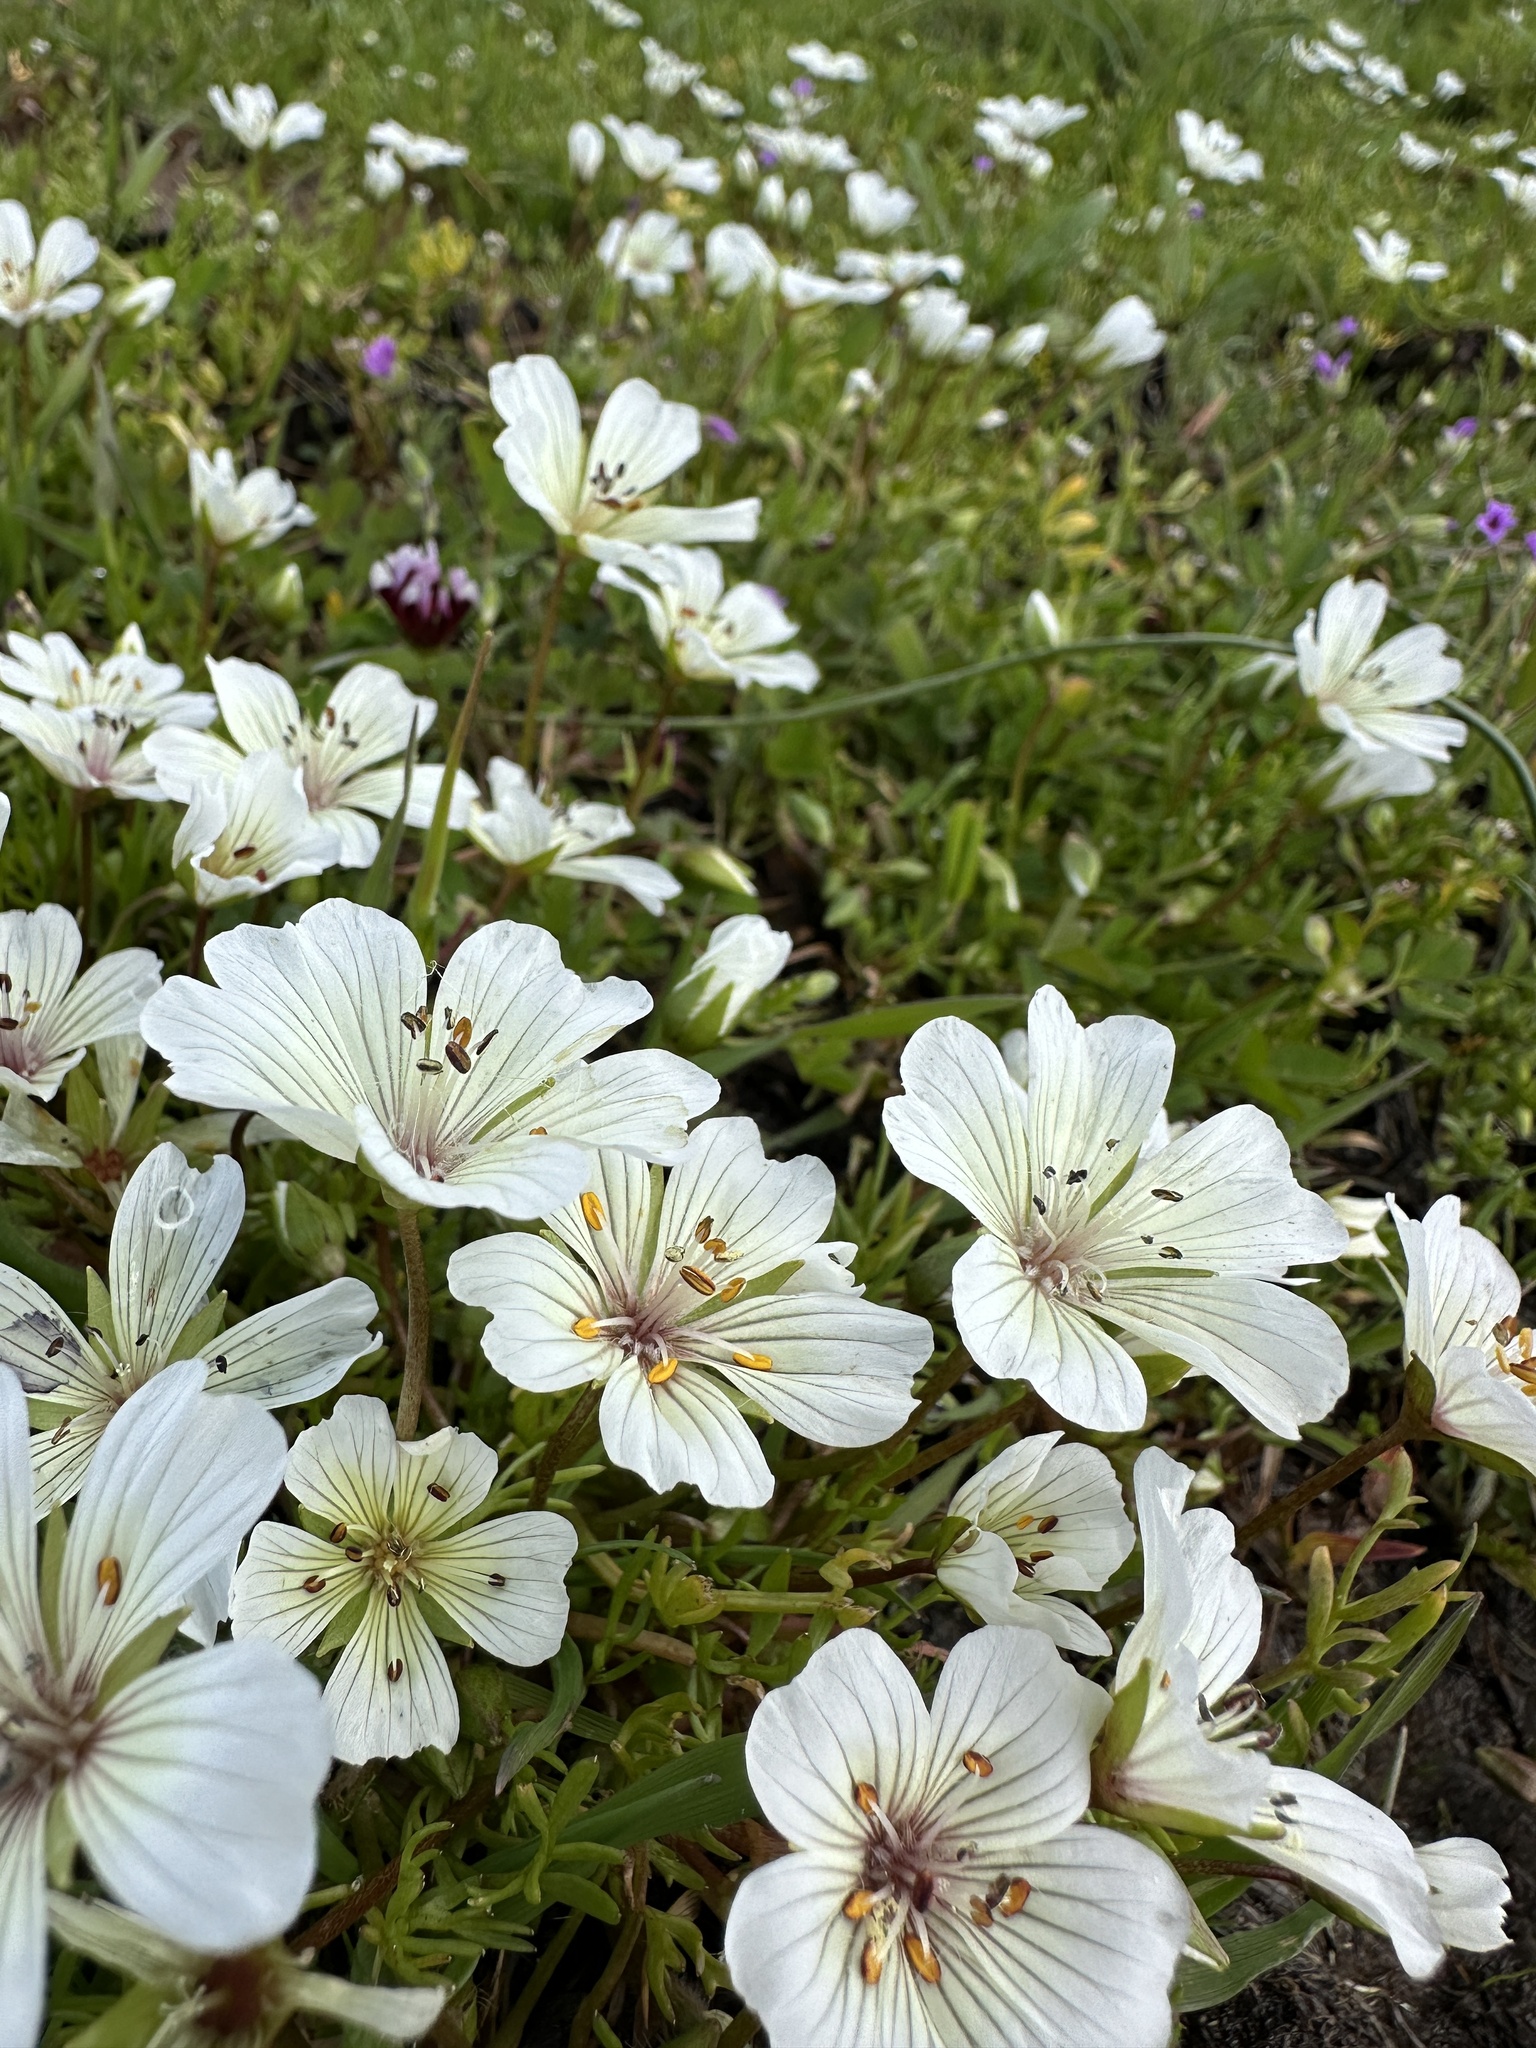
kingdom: Plantae
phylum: Tracheophyta
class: Magnoliopsida
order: Brassicales
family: Limnanthaceae
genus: Limnanthes
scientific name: Limnanthes douglasii
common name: Meadow-foam
